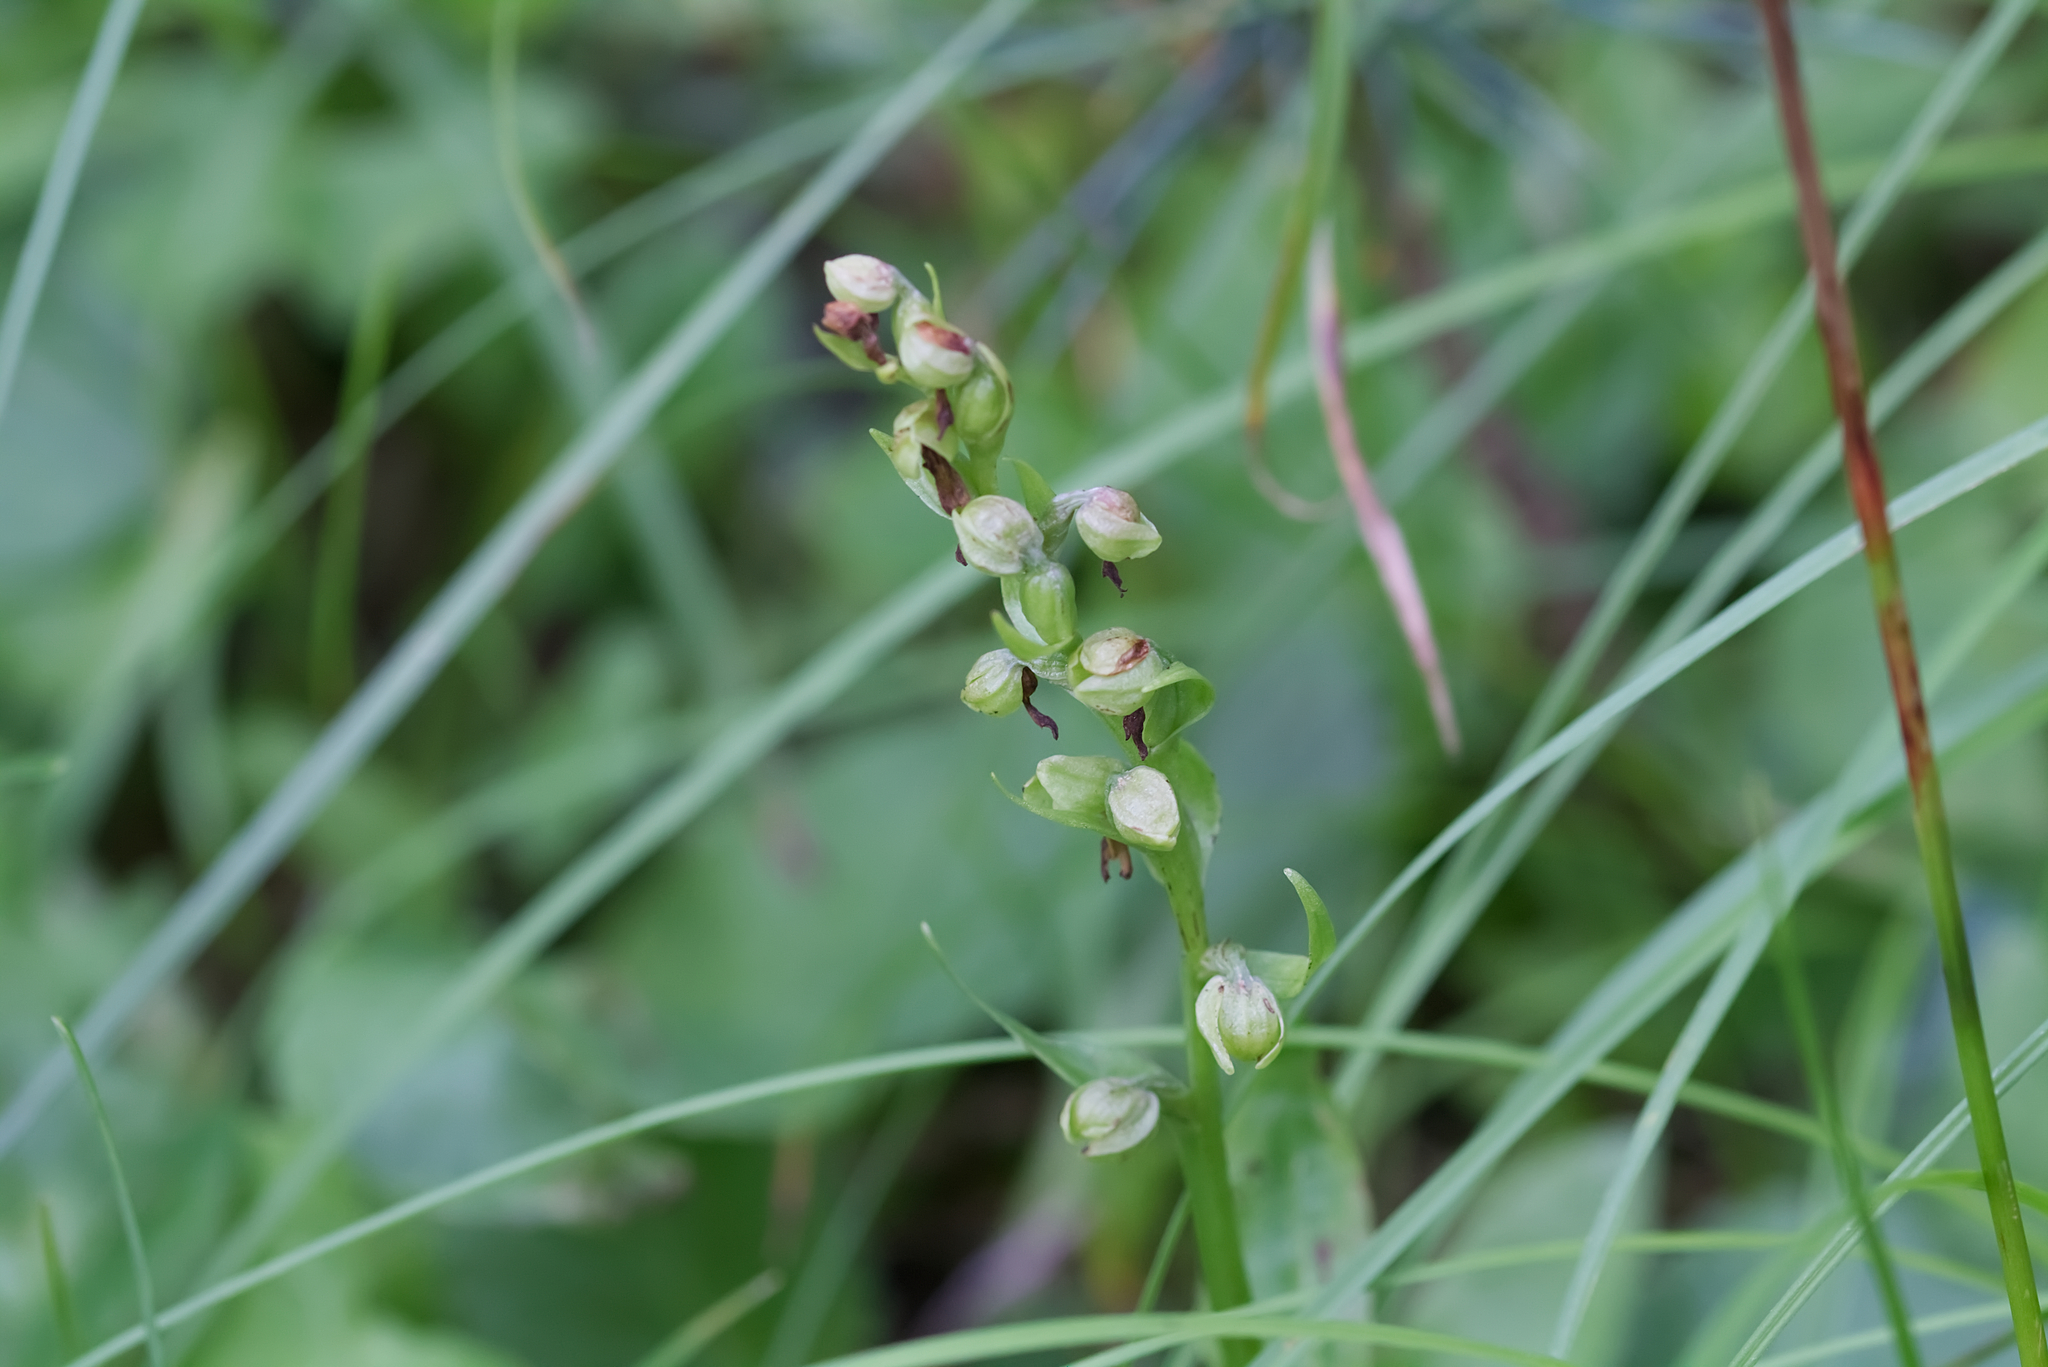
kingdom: Plantae
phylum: Tracheophyta
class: Liliopsida
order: Asparagales
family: Orchidaceae
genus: Dactylorhiza
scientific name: Dactylorhiza viridis
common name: Longbract frog orchid
